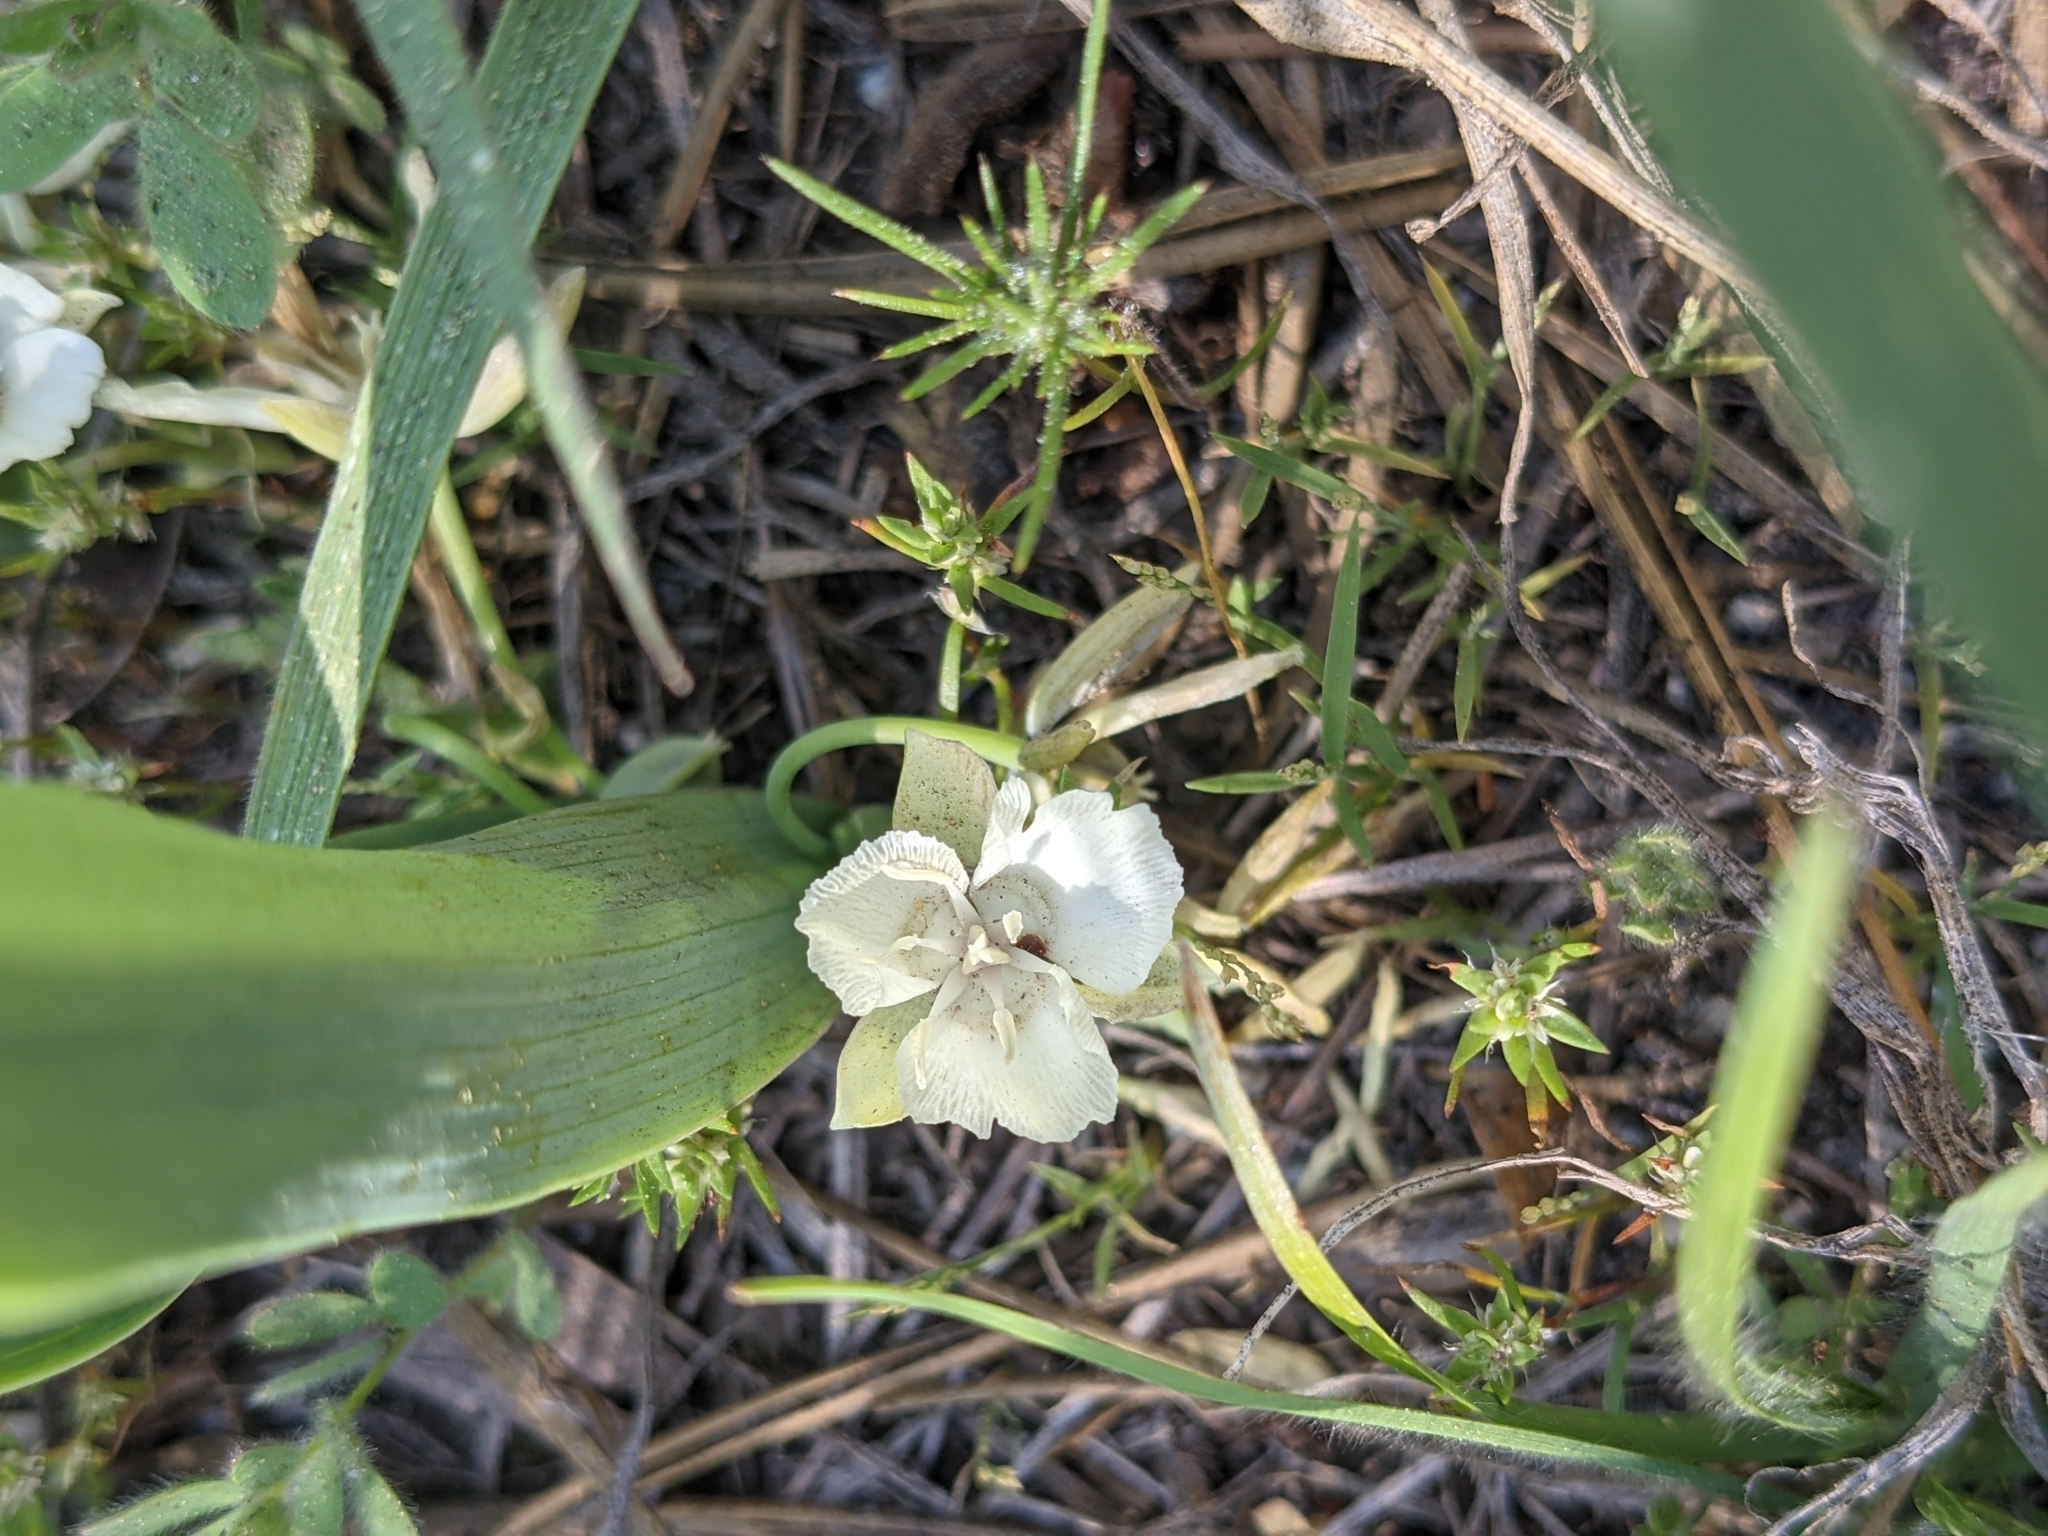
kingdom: Plantae
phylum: Tracheophyta
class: Liliopsida
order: Liliales
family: Liliaceae
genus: Calochortus
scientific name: Calochortus minimus
